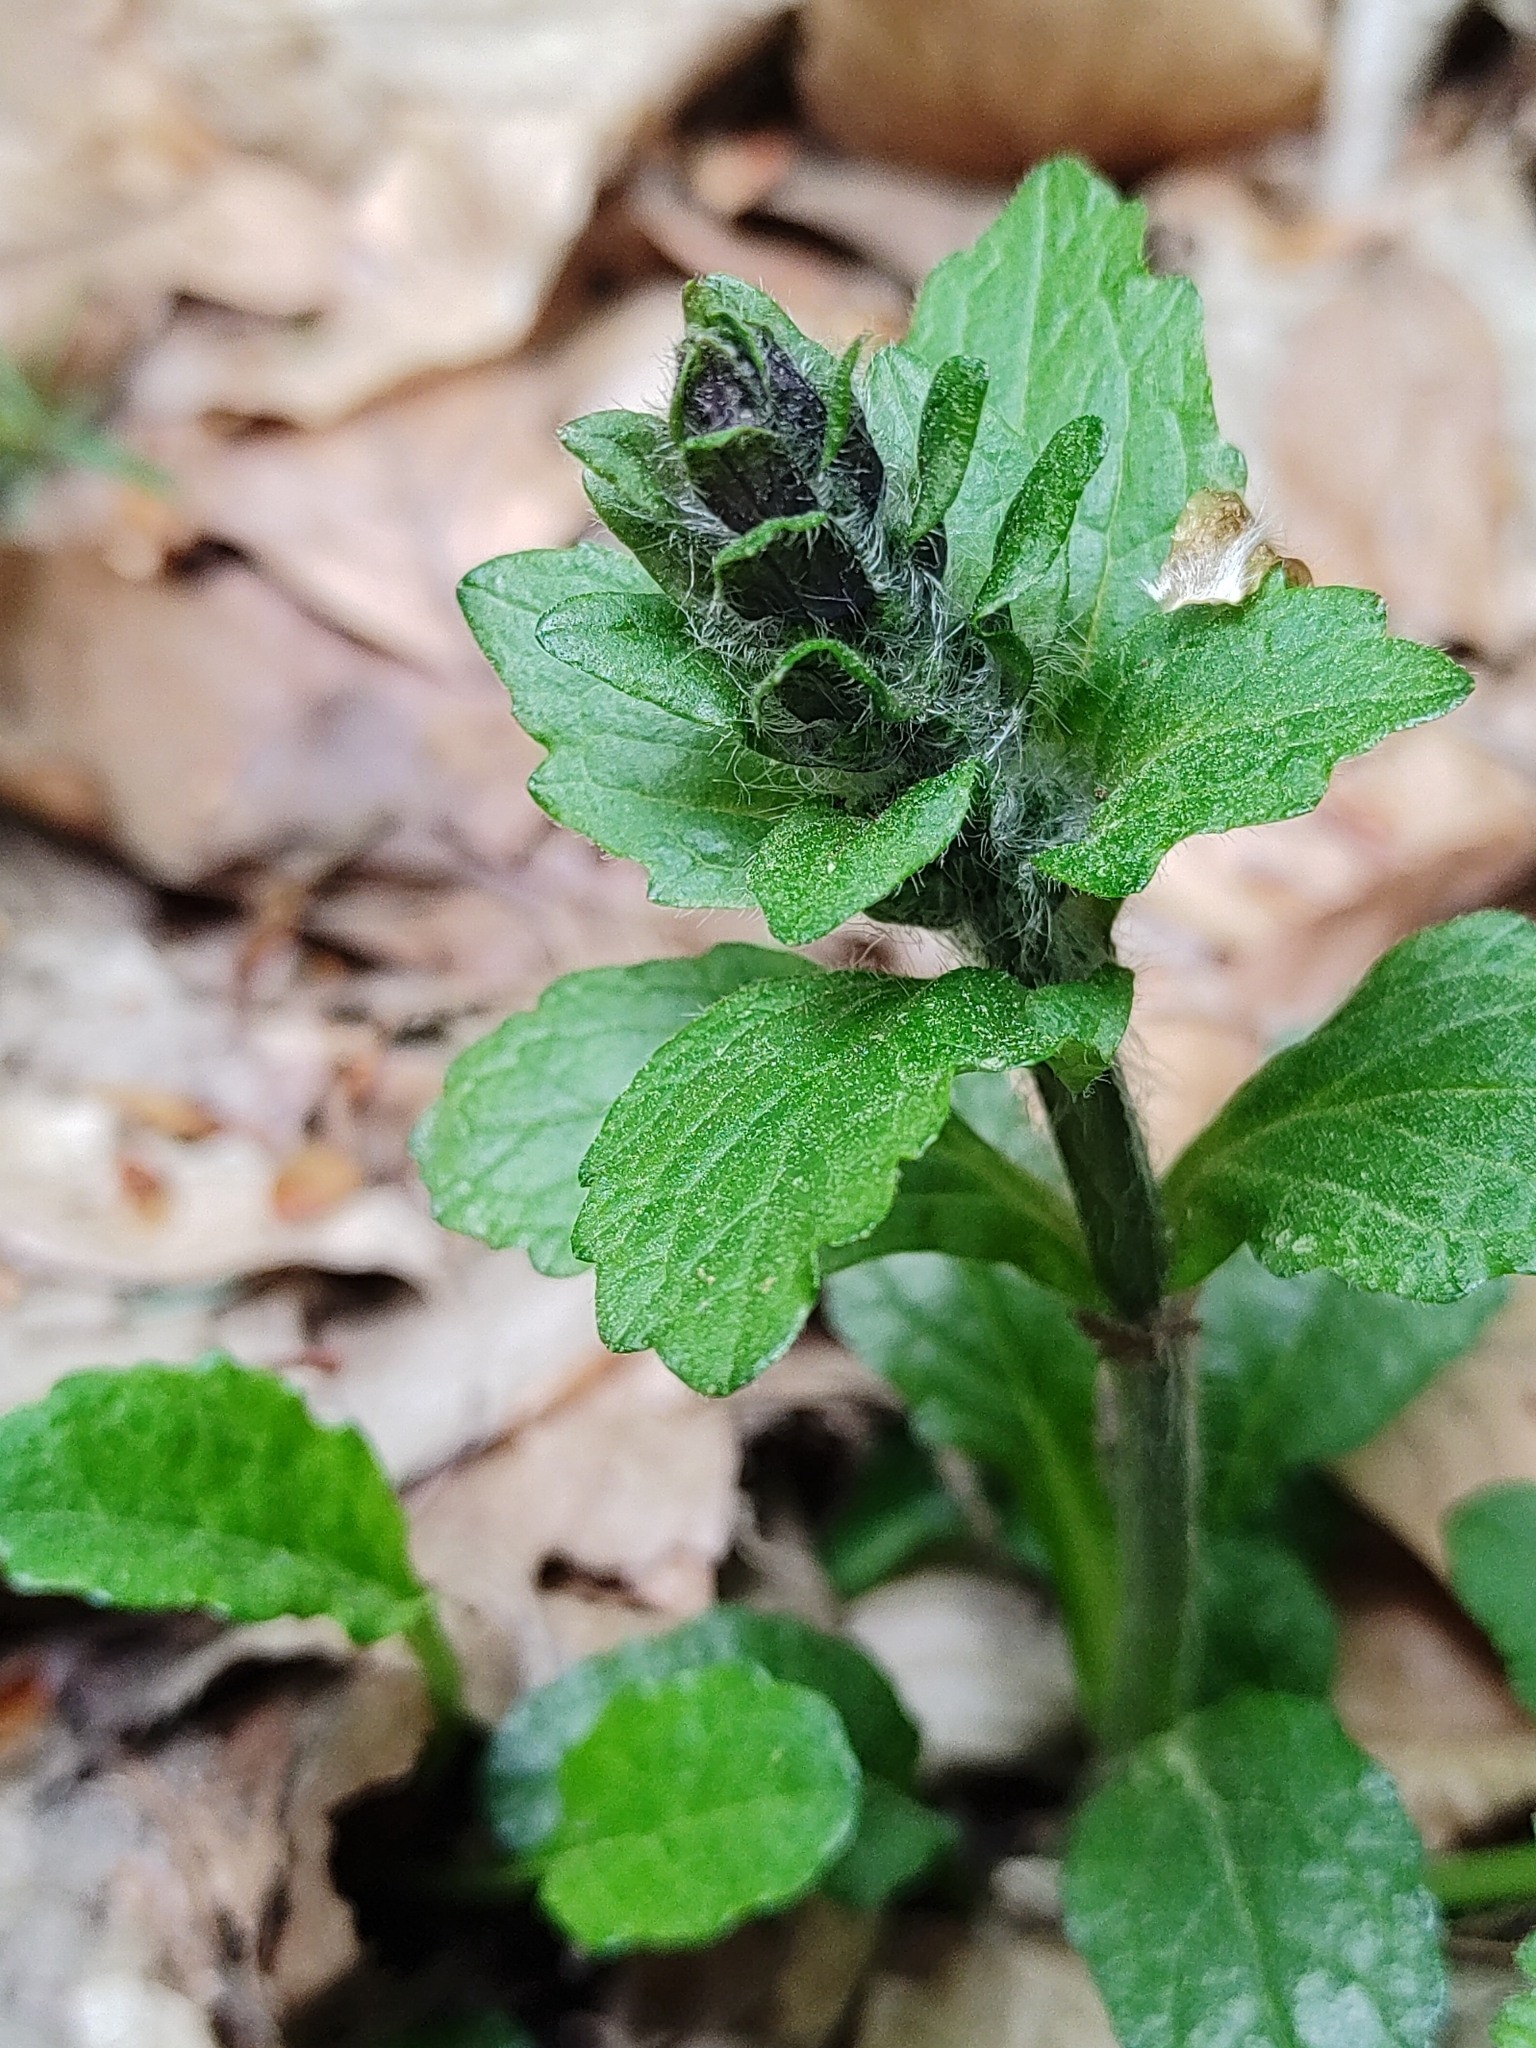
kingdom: Plantae
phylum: Tracheophyta
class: Magnoliopsida
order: Lamiales
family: Lamiaceae
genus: Ajuga
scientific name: Ajuga reptans
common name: Bugle
